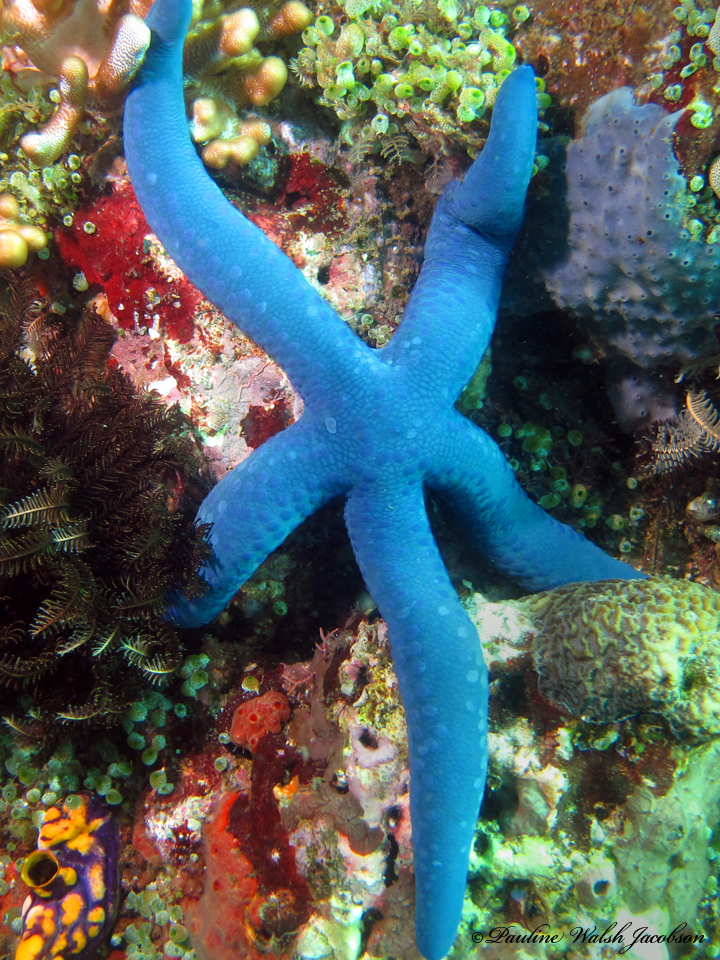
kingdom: Animalia
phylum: Echinodermata
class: Asteroidea
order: Valvatida
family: Ophidiasteridae
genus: Linckia
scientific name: Linckia laevigata
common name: Azure sea star
